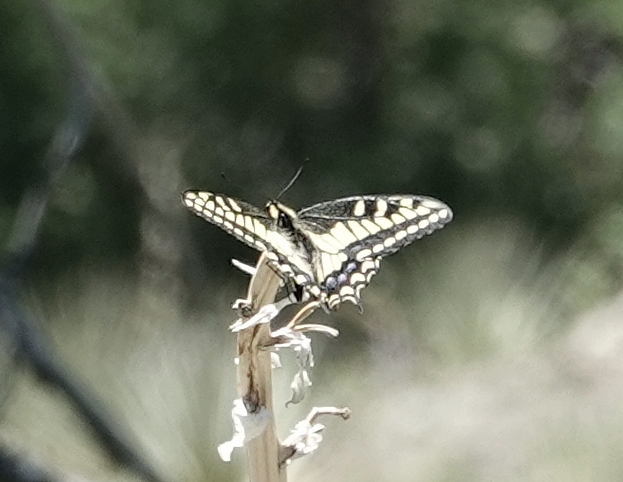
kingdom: Animalia
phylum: Arthropoda
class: Insecta
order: Lepidoptera
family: Papilionidae
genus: Papilio
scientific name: Papilio zelicaon
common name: Anise swallowtail
